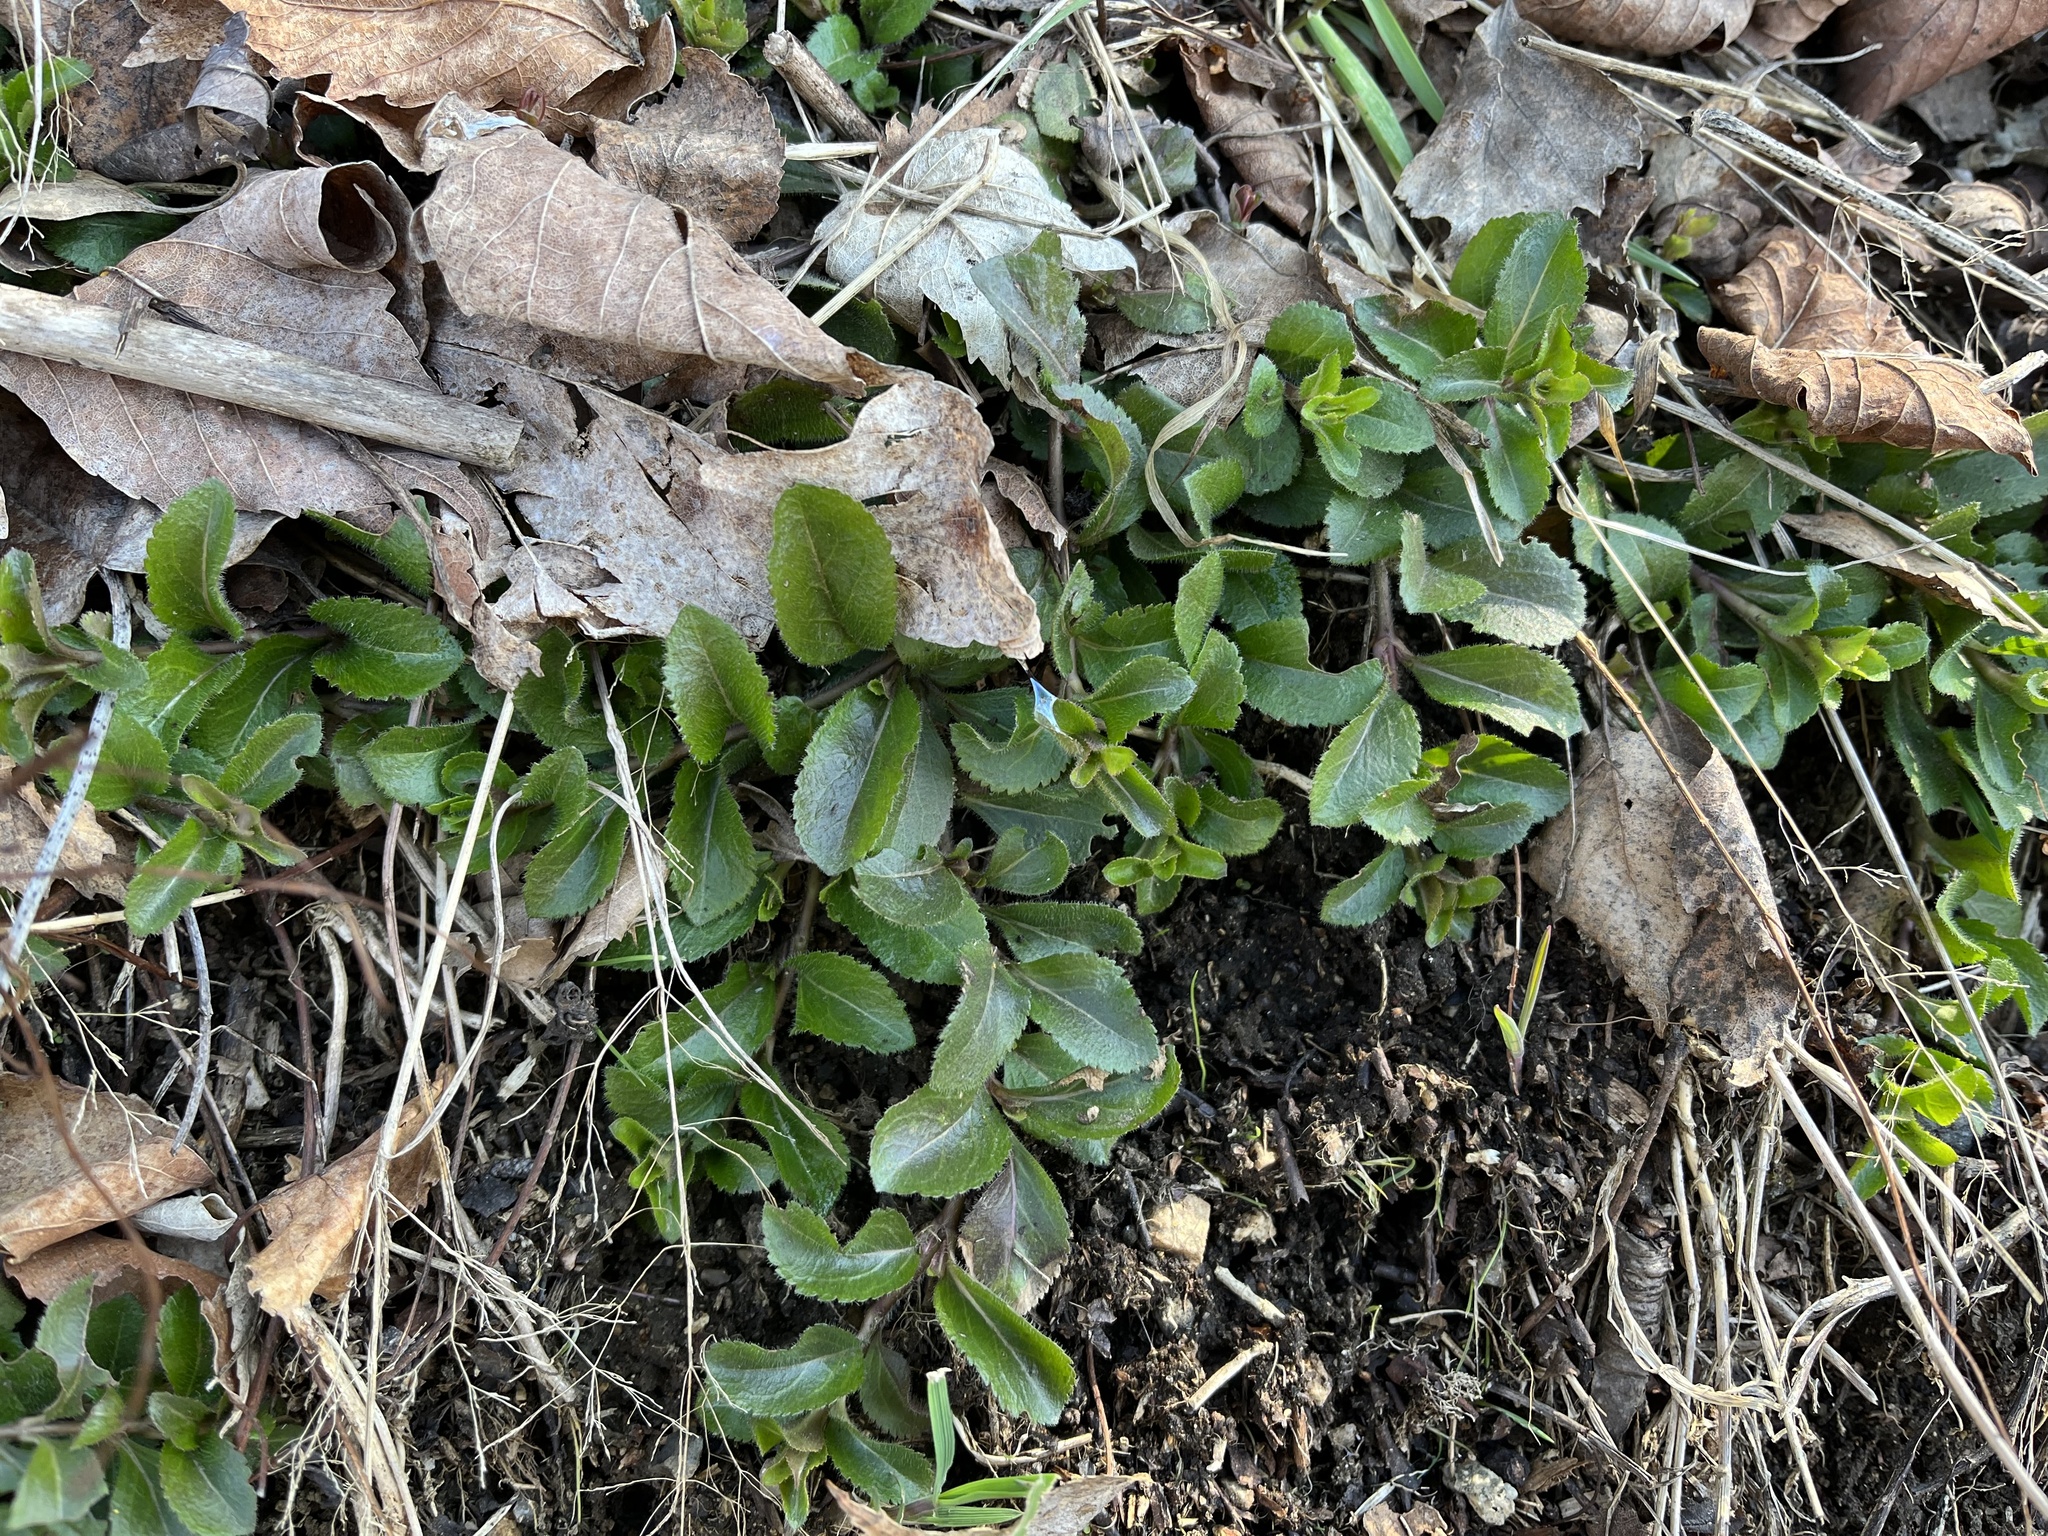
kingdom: Plantae
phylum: Tracheophyta
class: Magnoliopsida
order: Lamiales
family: Plantaginaceae
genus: Veronica
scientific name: Veronica officinalis
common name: Common speedwell
